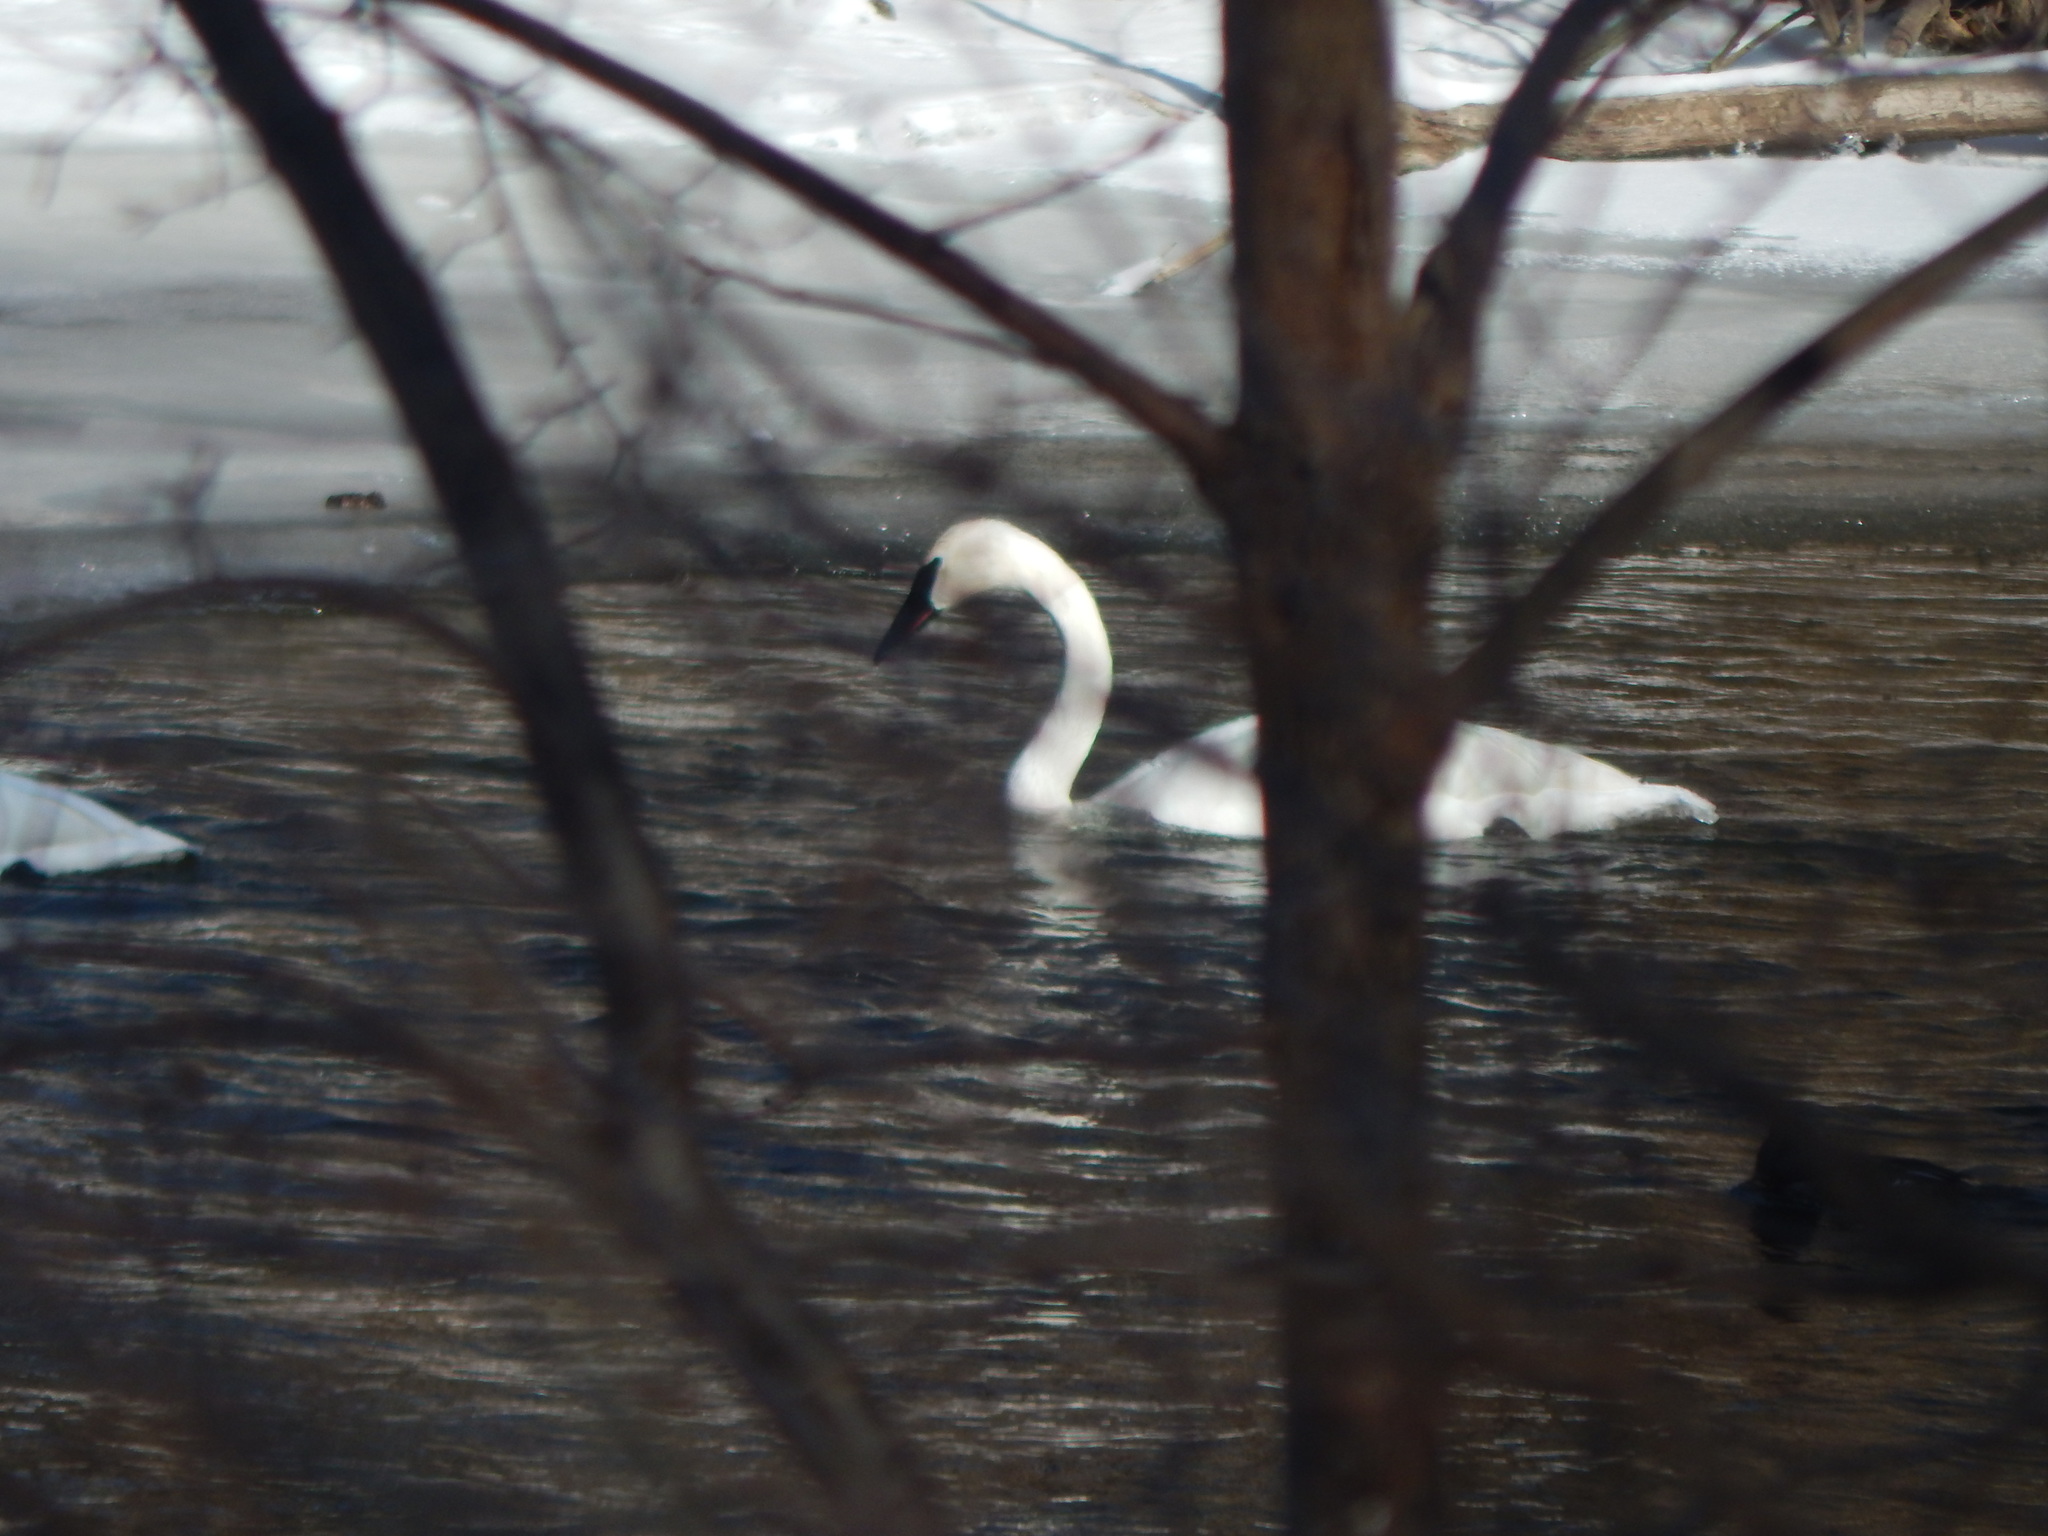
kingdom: Animalia
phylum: Chordata
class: Aves
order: Anseriformes
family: Anatidae
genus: Cygnus
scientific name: Cygnus buccinator
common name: Trumpeter swan
